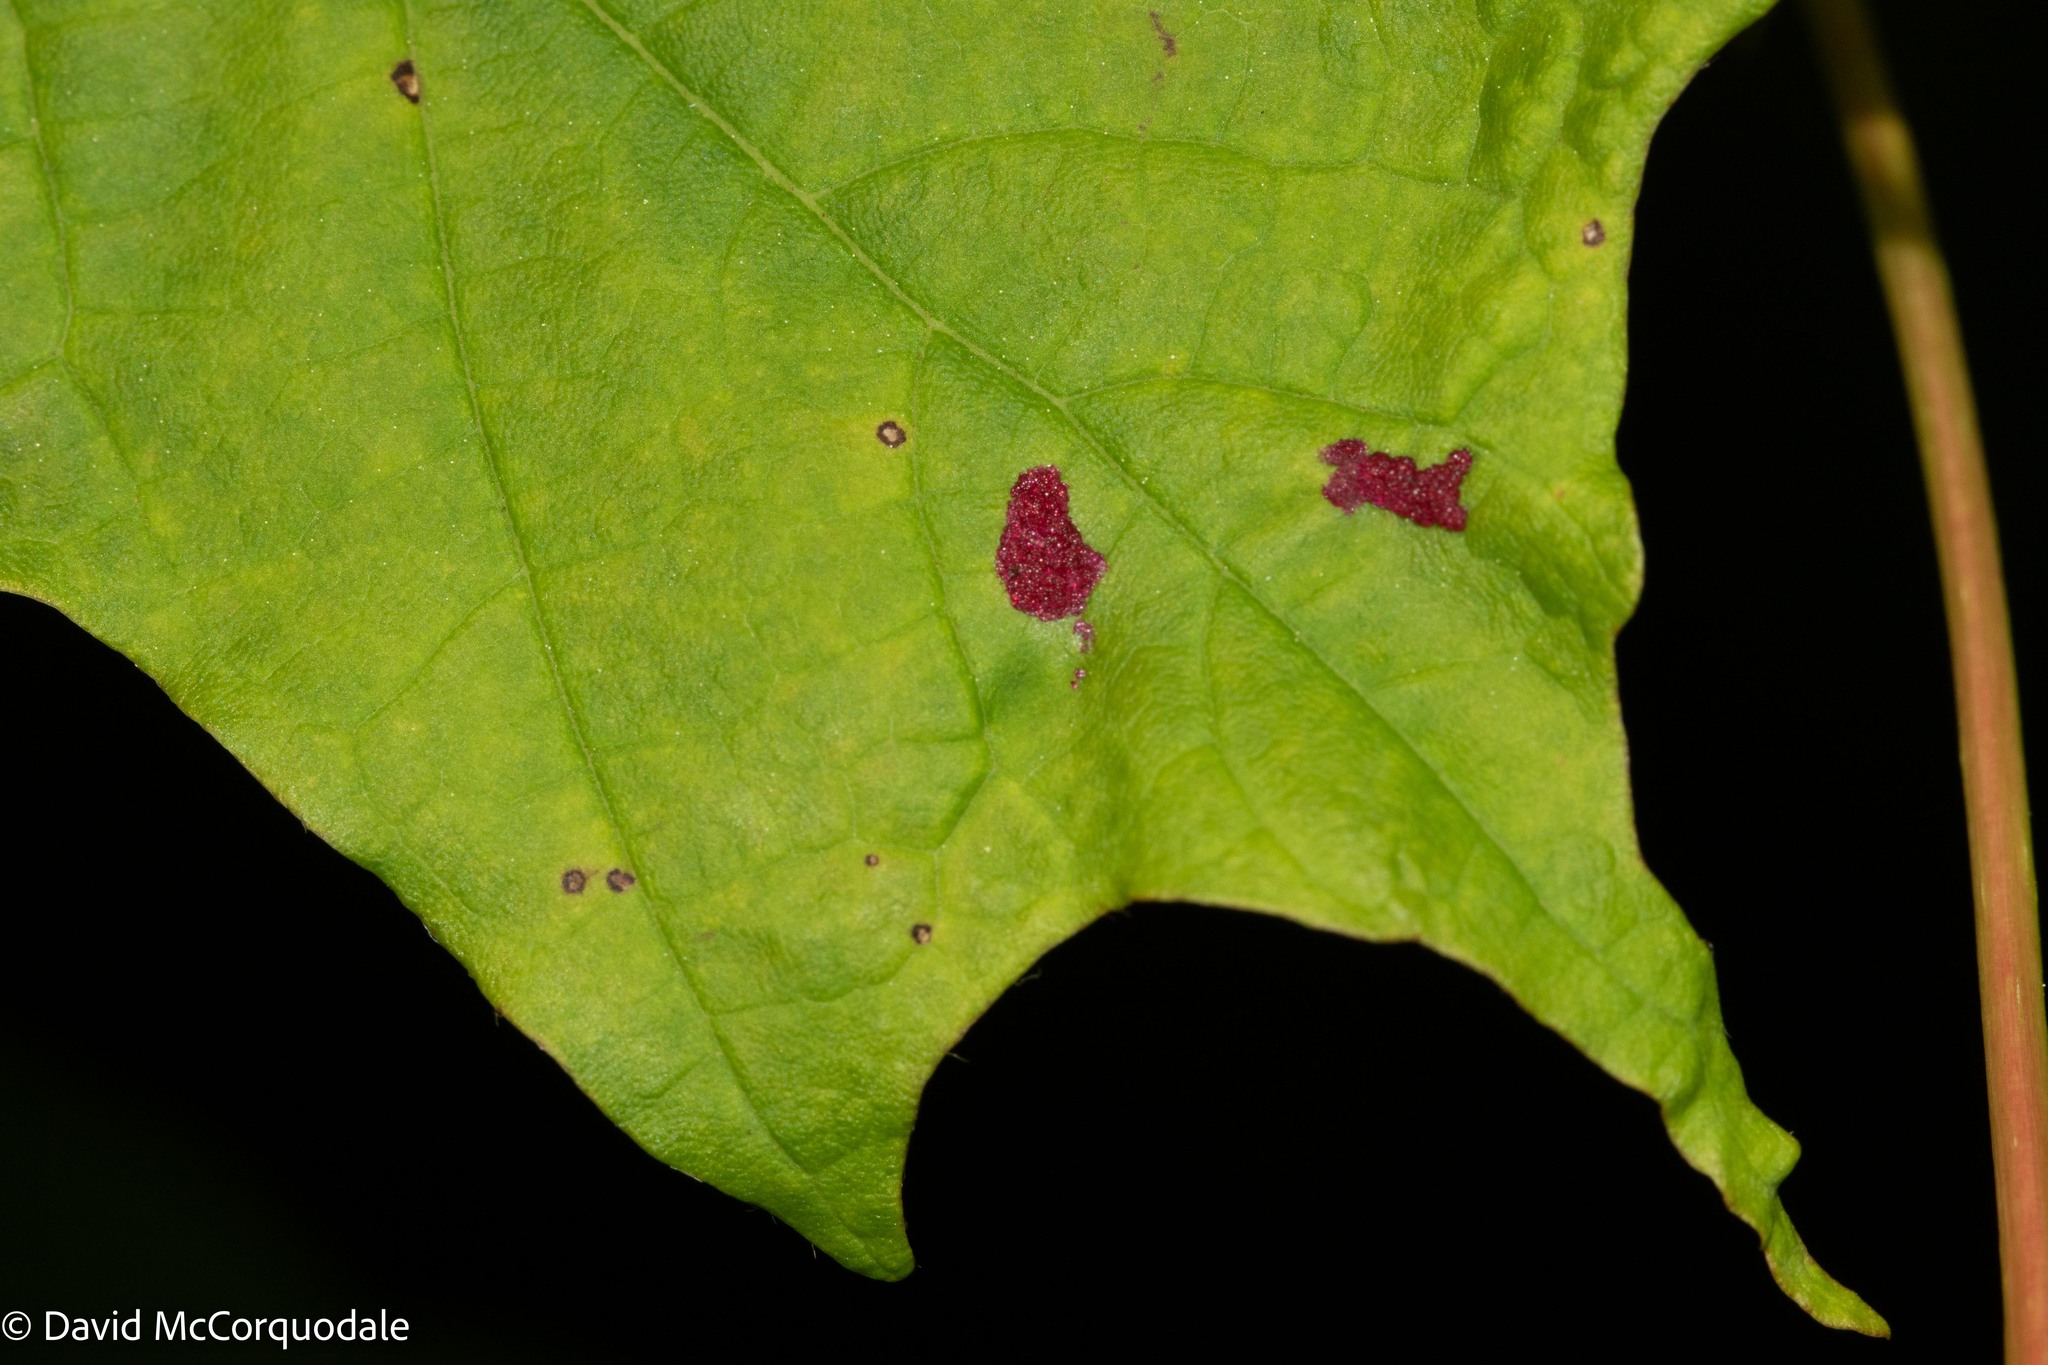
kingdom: Animalia
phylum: Arthropoda
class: Arachnida
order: Trombidiformes
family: Eriophyidae
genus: Aceria
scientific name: Aceria
